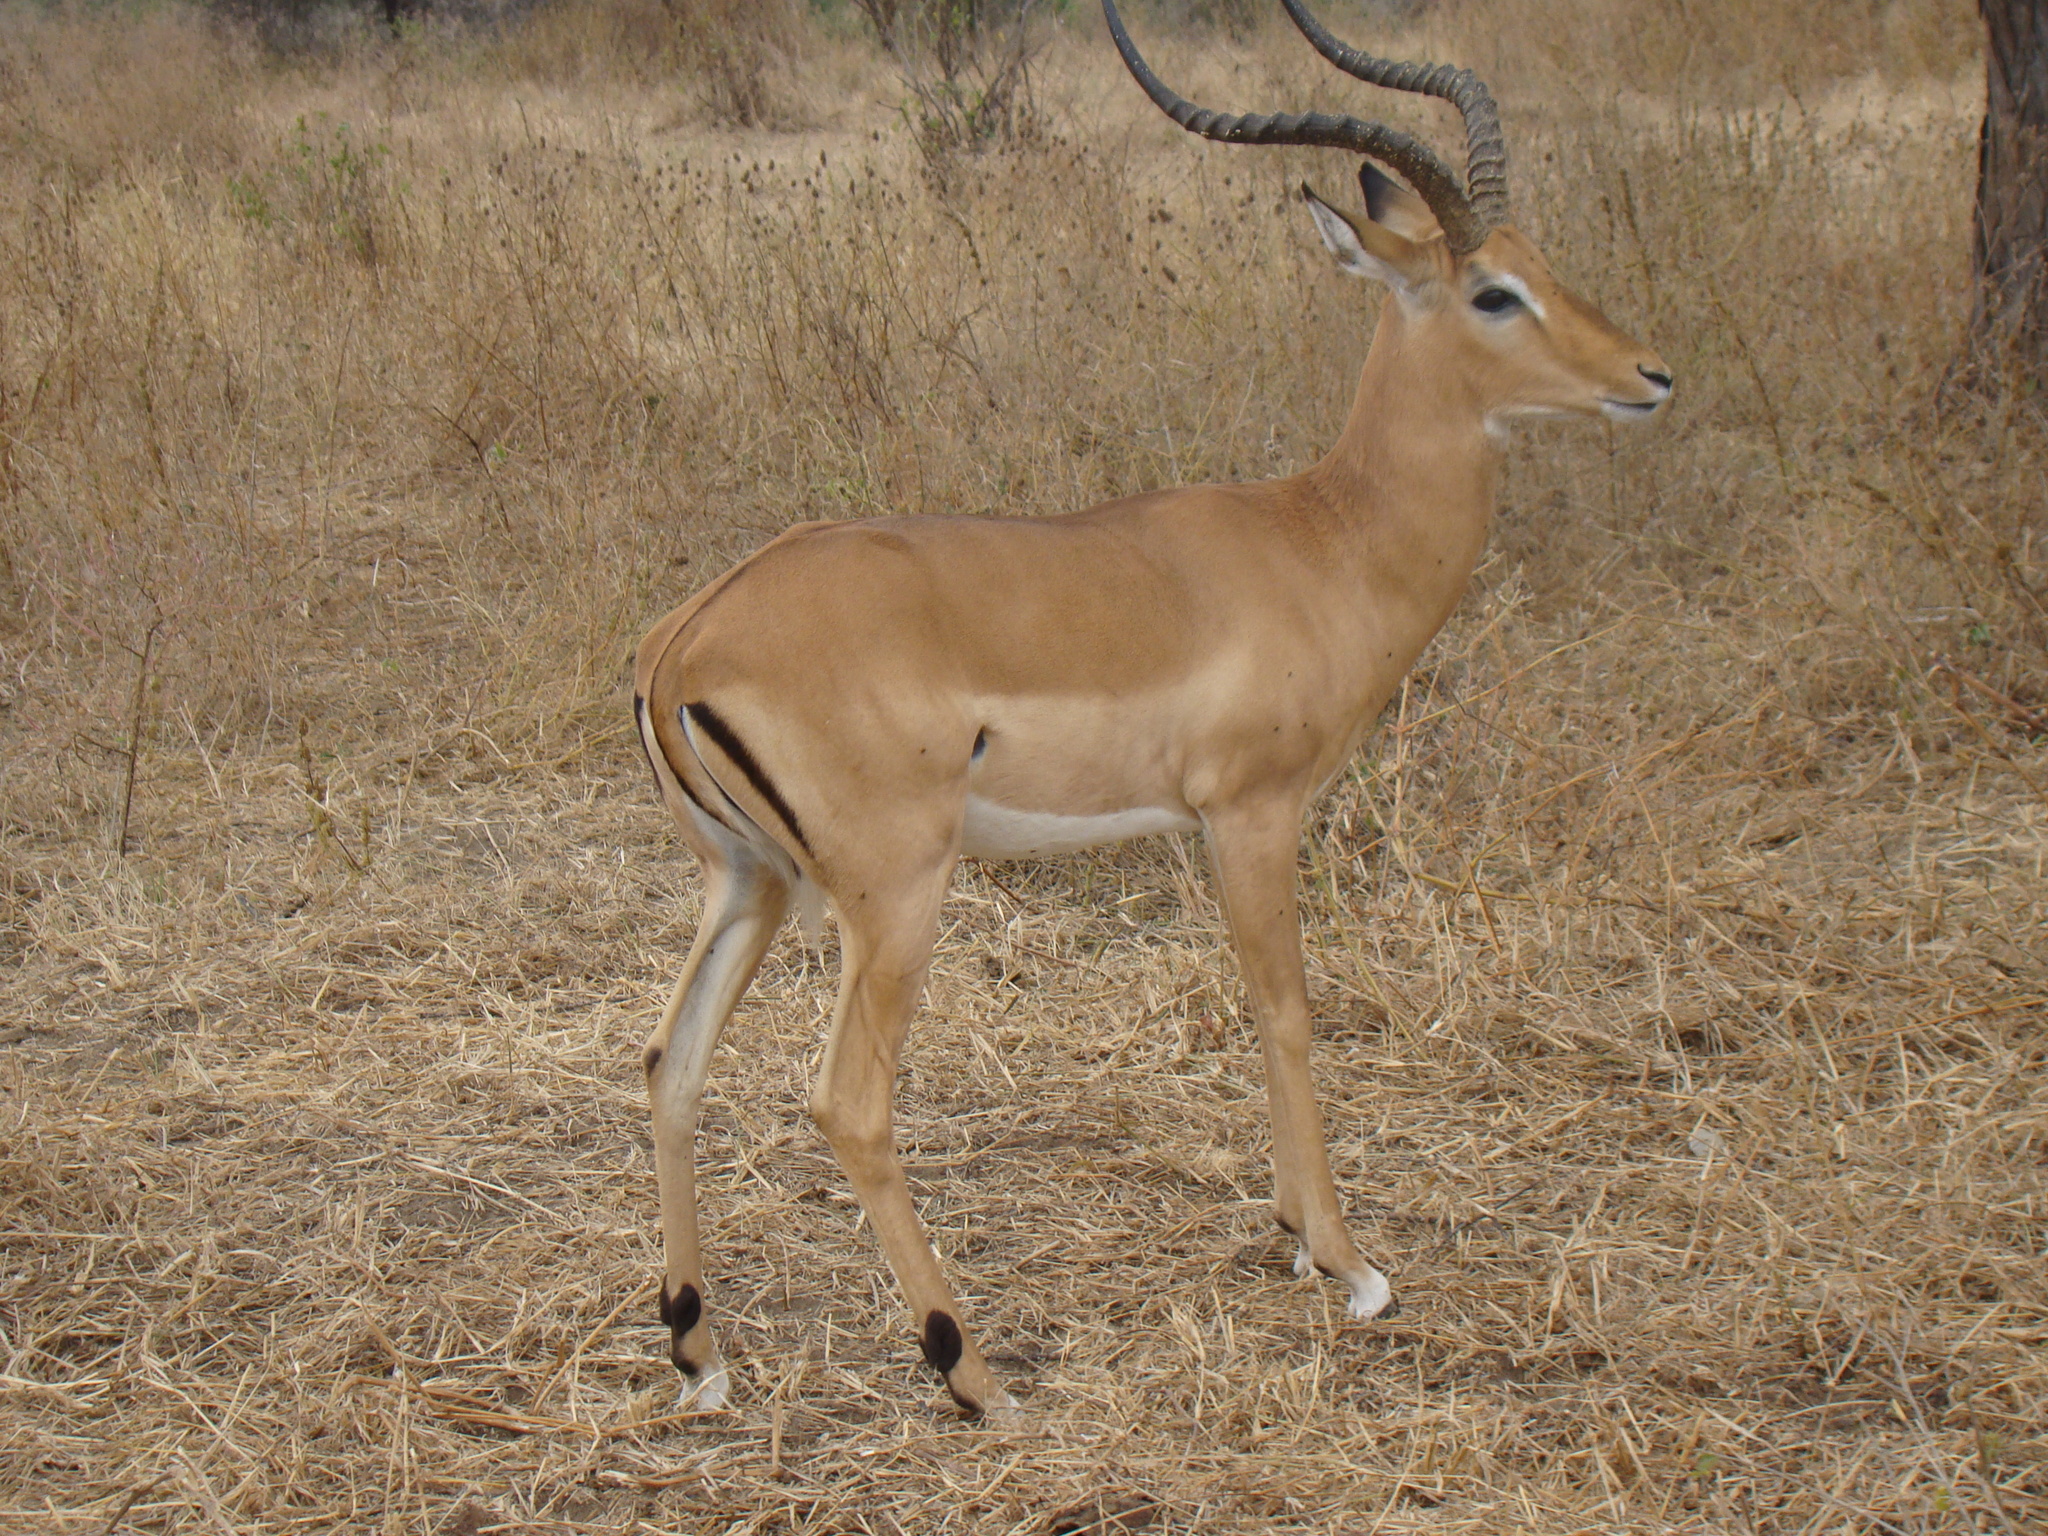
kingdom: Animalia
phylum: Chordata
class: Mammalia
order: Artiodactyla
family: Bovidae
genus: Aepyceros
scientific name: Aepyceros melampus
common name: Impala
